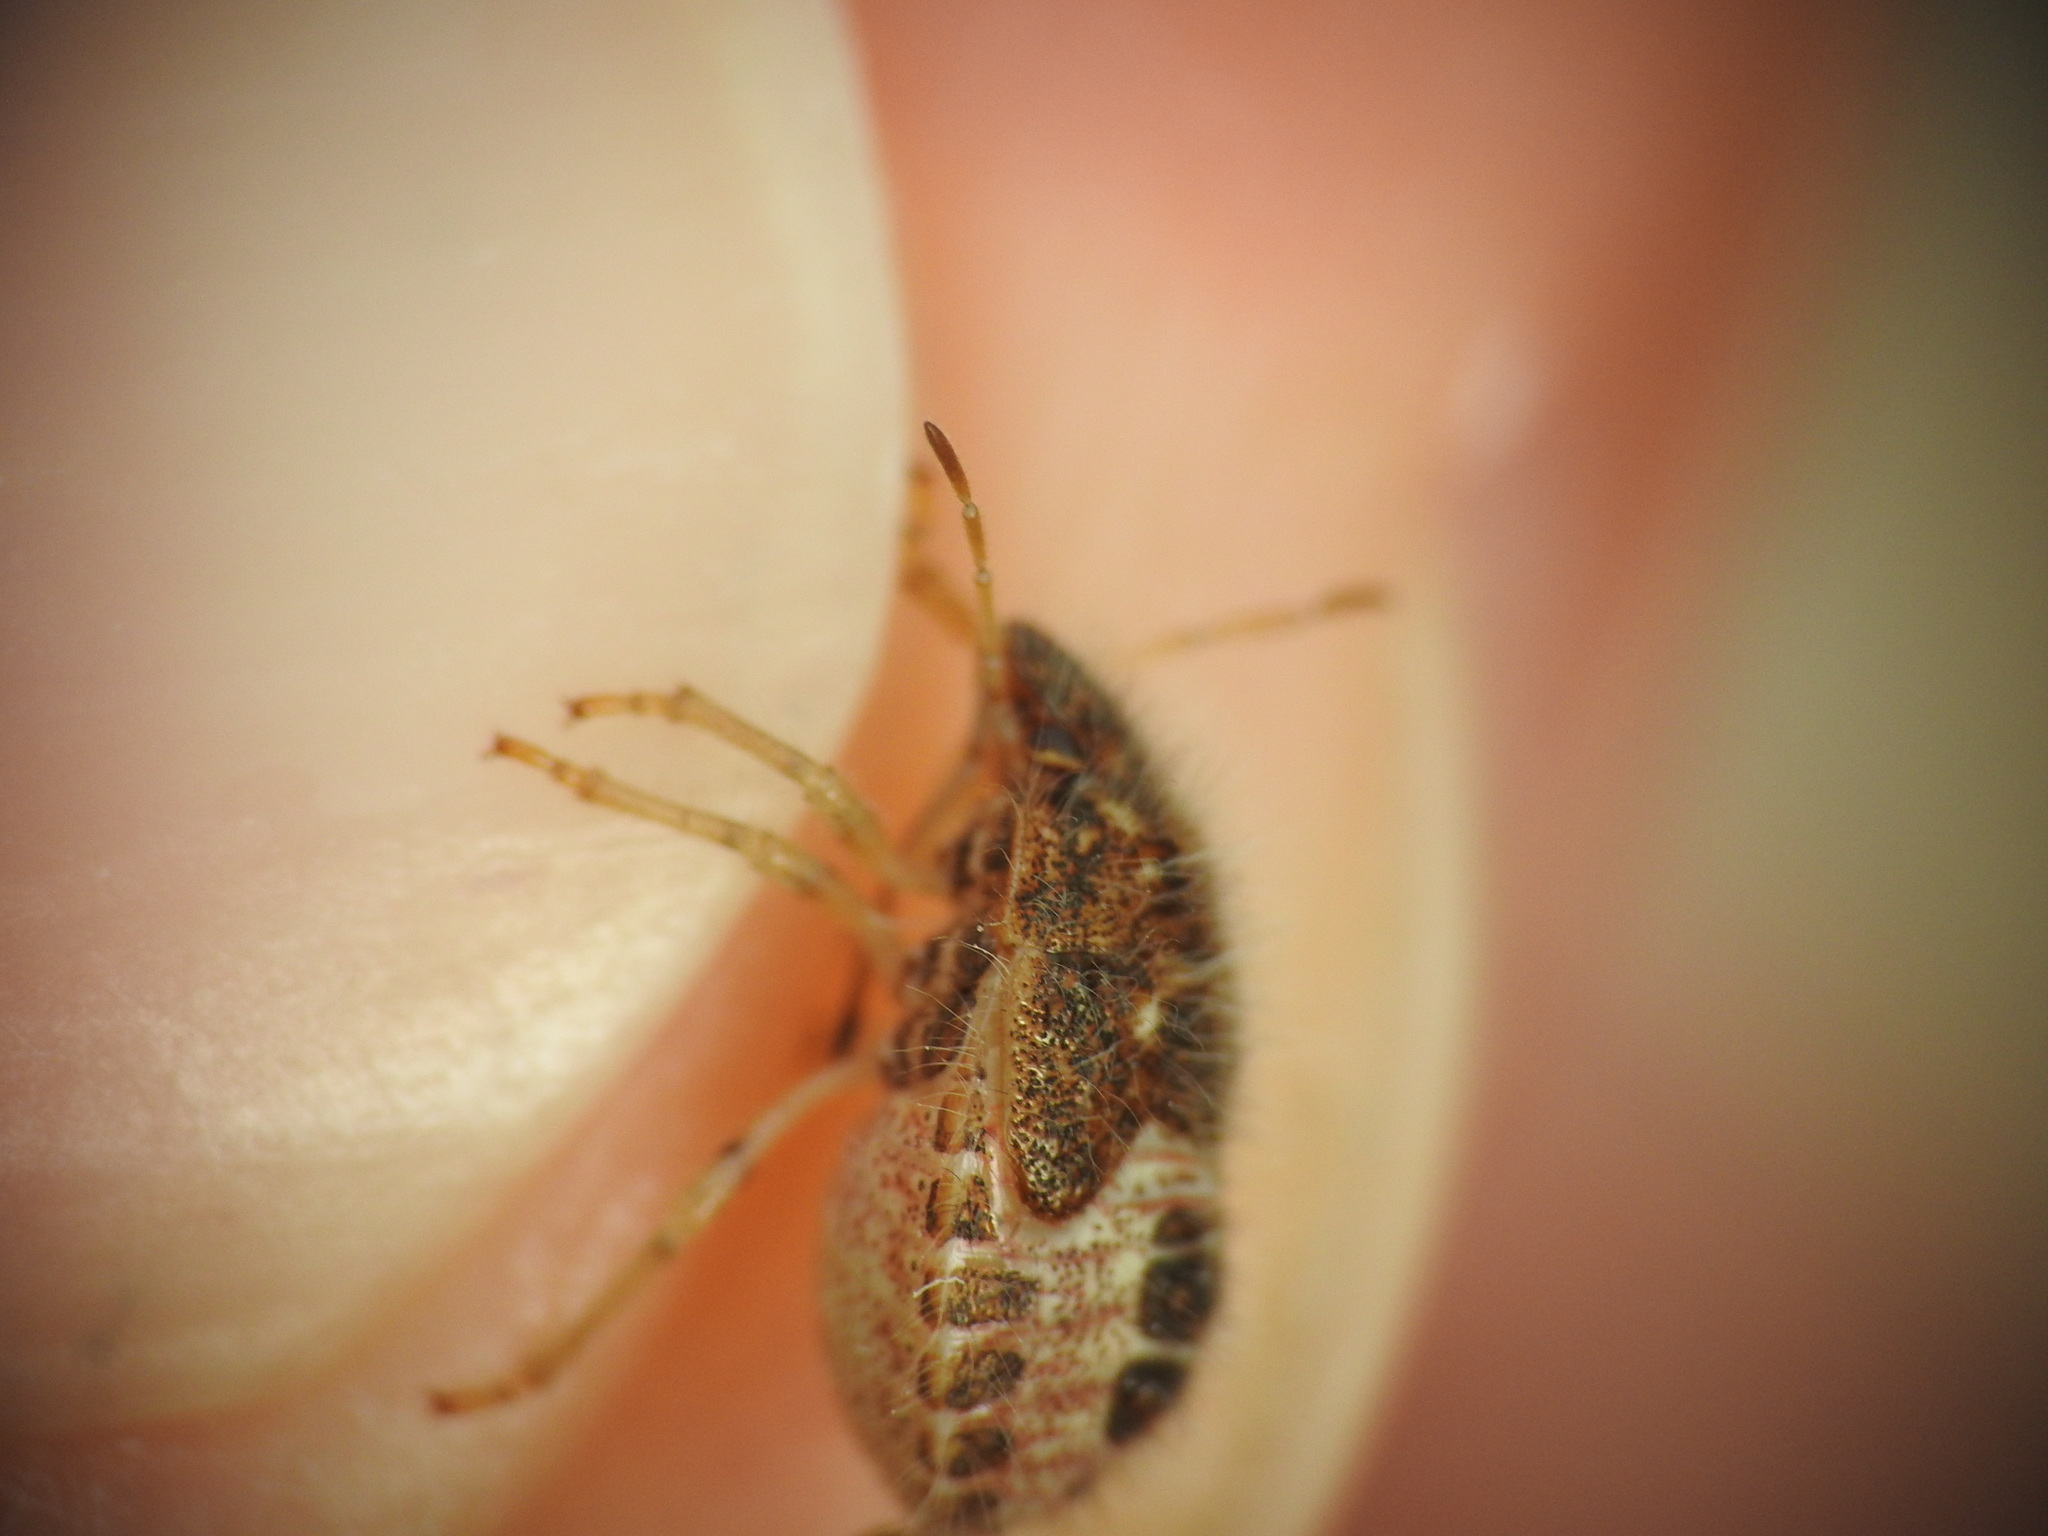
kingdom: Animalia
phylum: Arthropoda
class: Insecta
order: Hemiptera
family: Pentatomidae
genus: Staria
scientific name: Staria lunata
